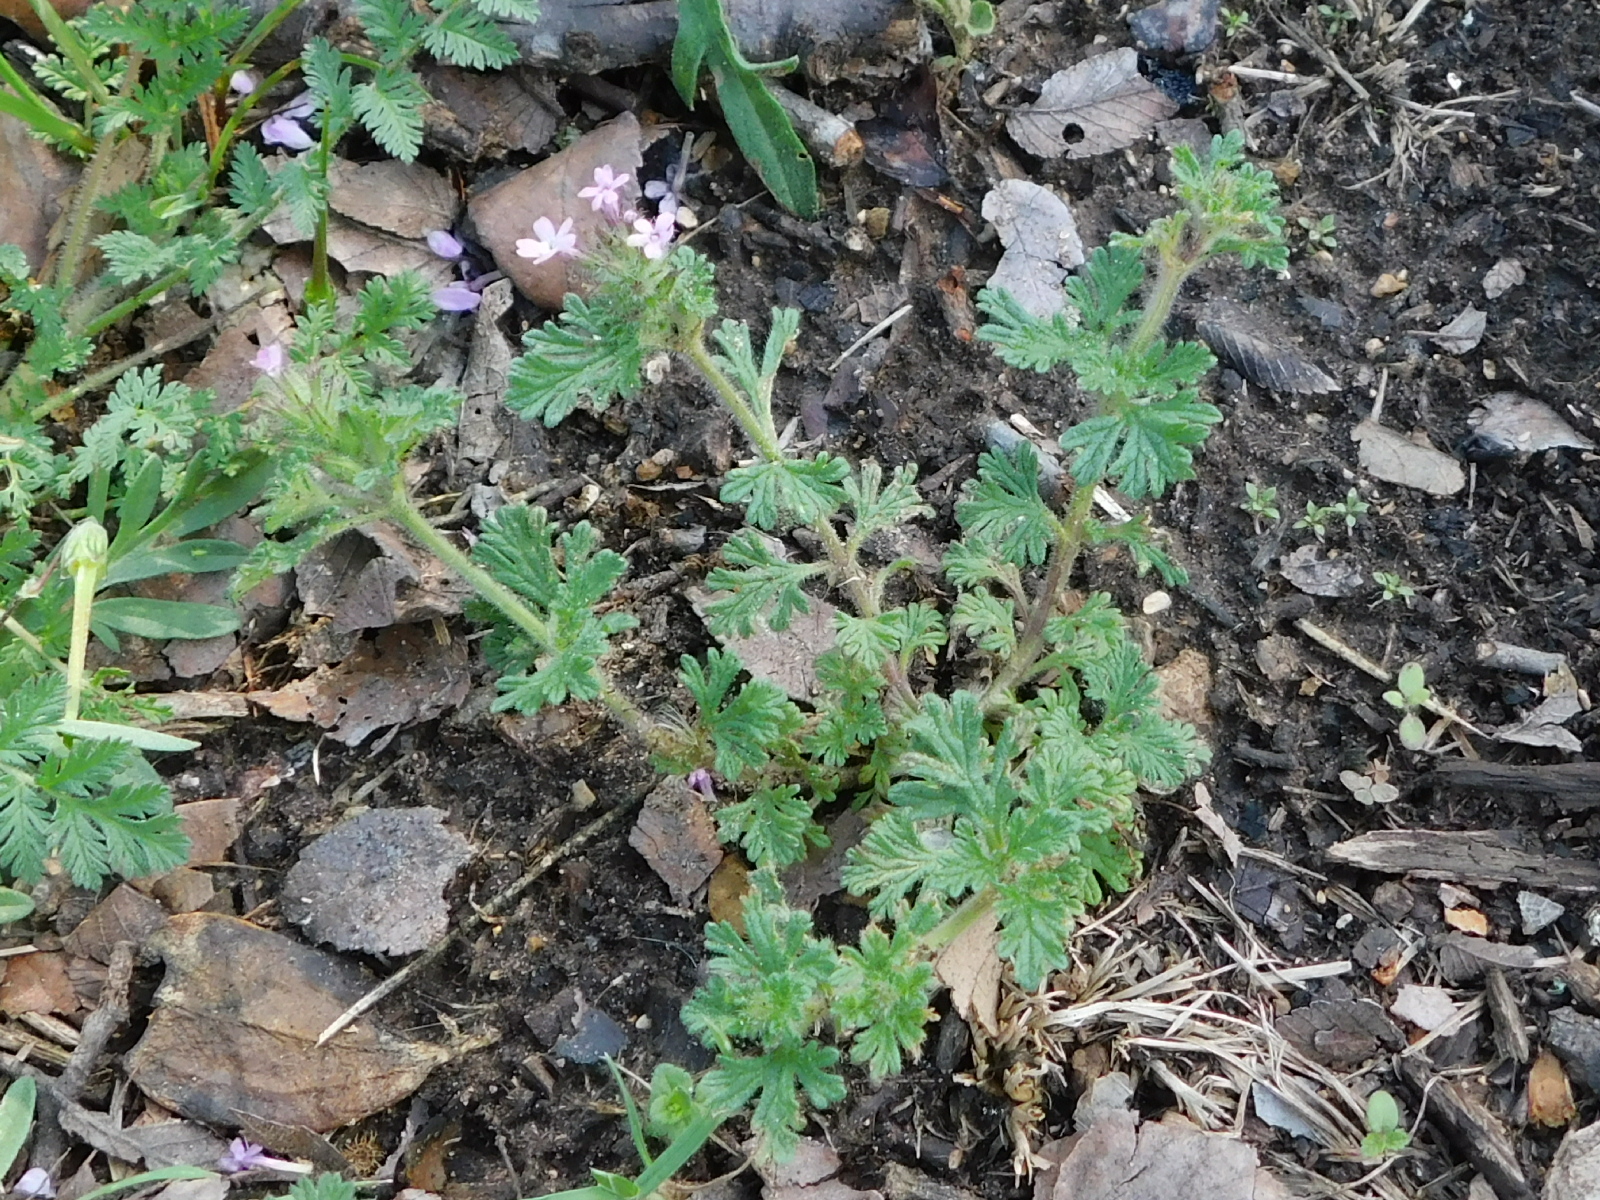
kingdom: Plantae
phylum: Tracheophyta
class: Magnoliopsida
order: Lamiales
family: Verbenaceae
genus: Verbena
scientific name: Verbena pumila
